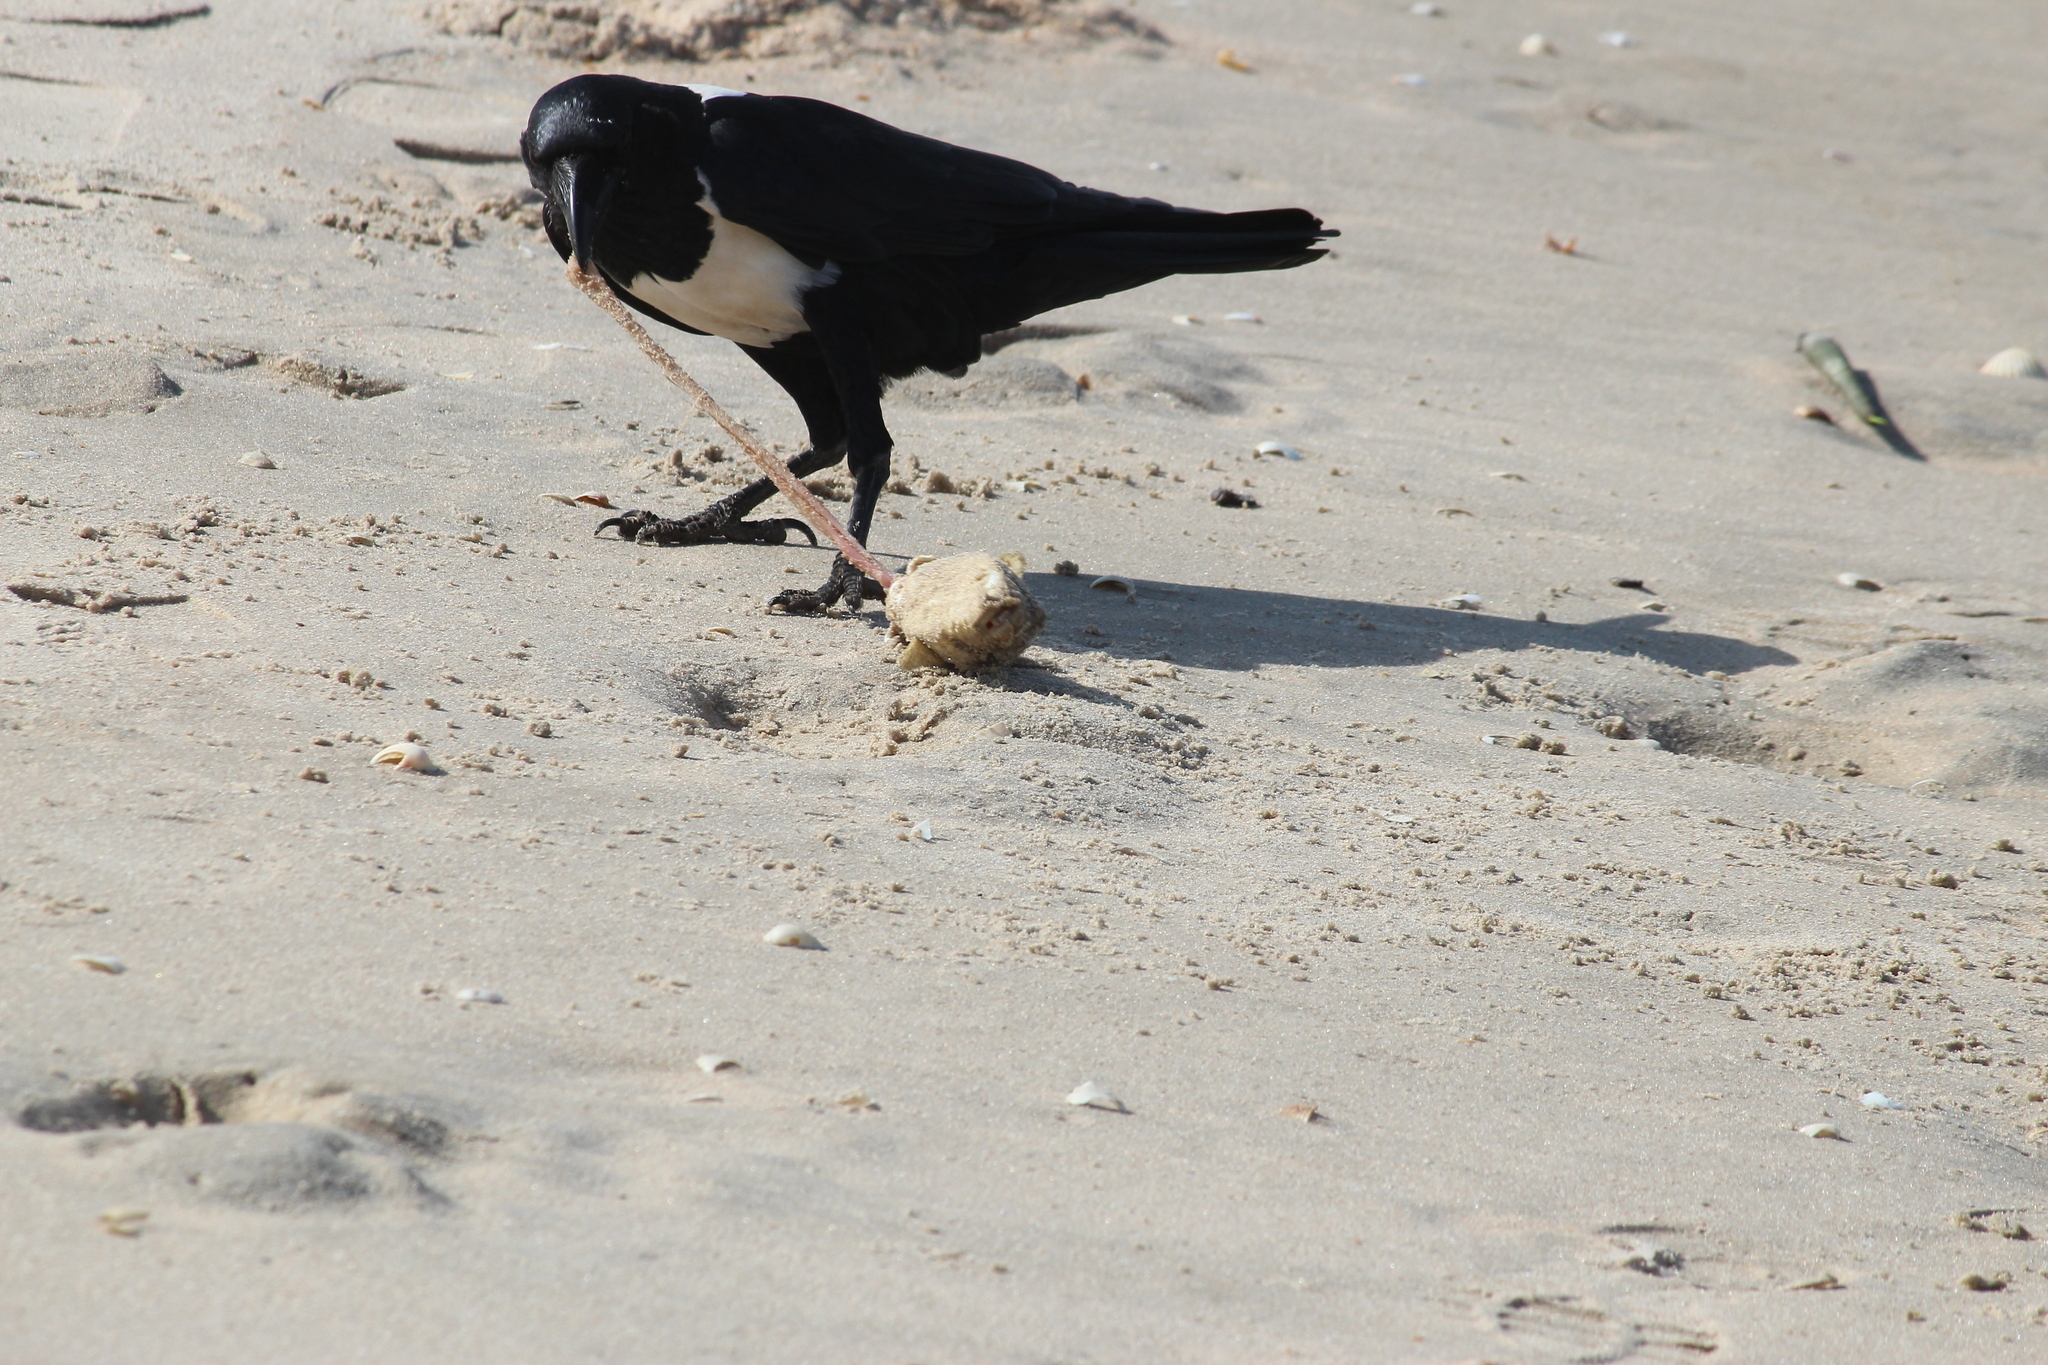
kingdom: Animalia
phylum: Chordata
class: Aves
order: Passeriformes
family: Corvidae
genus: Corvus
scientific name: Corvus albus
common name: Pied crow
